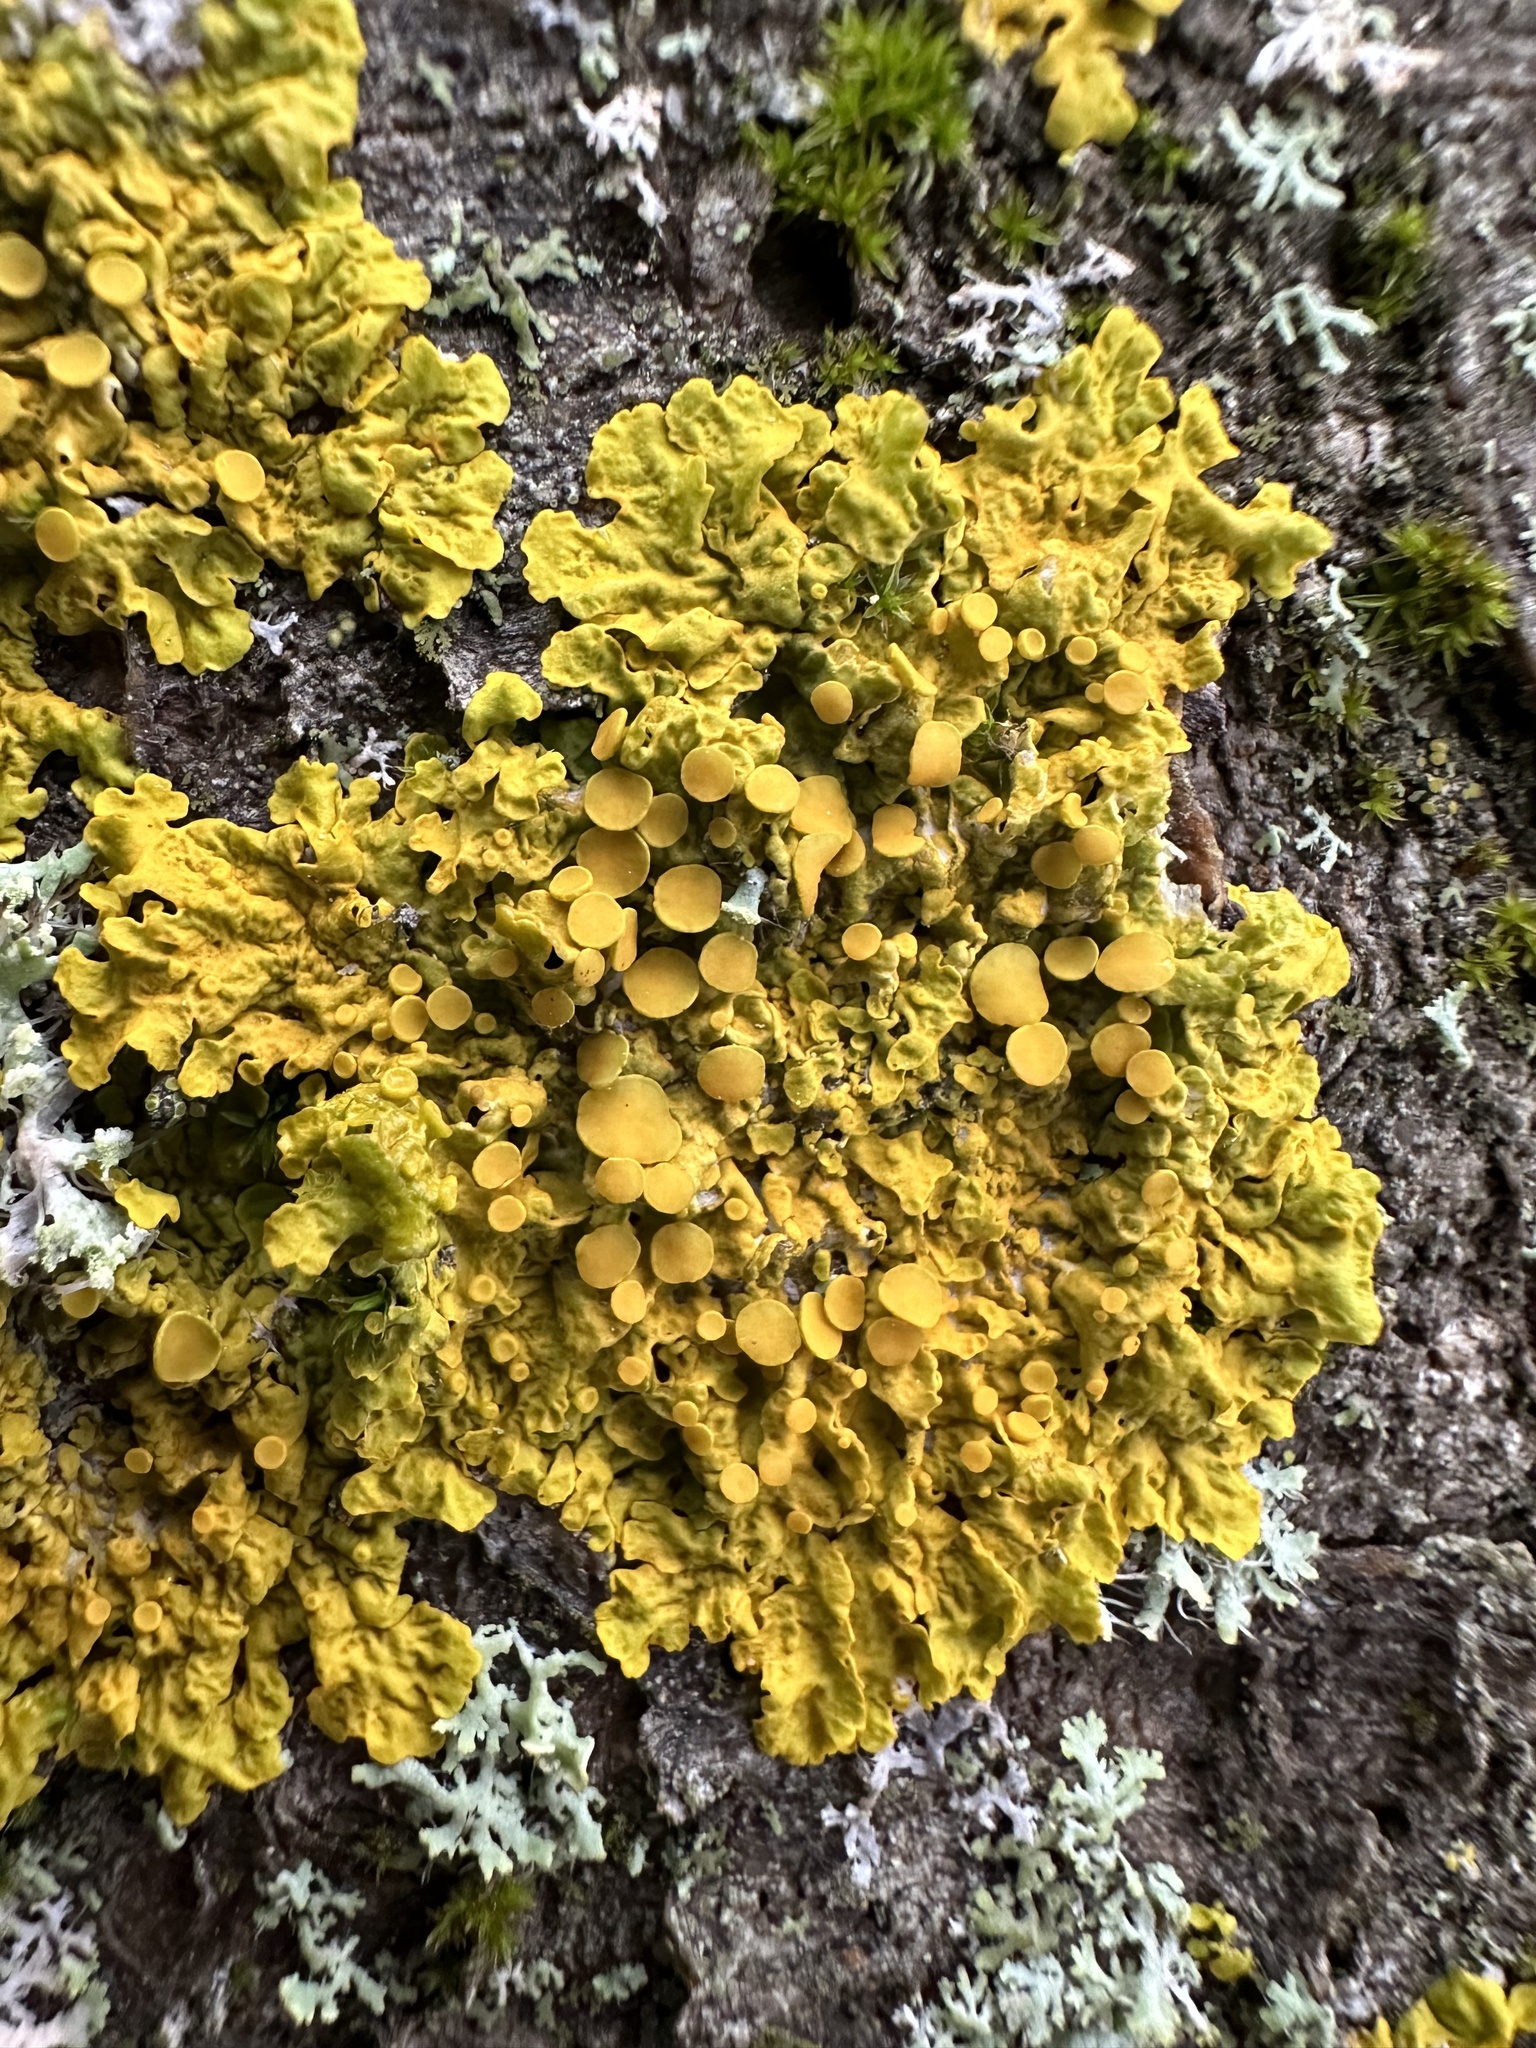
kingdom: Fungi
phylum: Ascomycota
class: Lecanoromycetes
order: Teloschistales
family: Teloschistaceae
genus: Xanthoria
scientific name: Xanthoria parietina
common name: Common orange lichen
